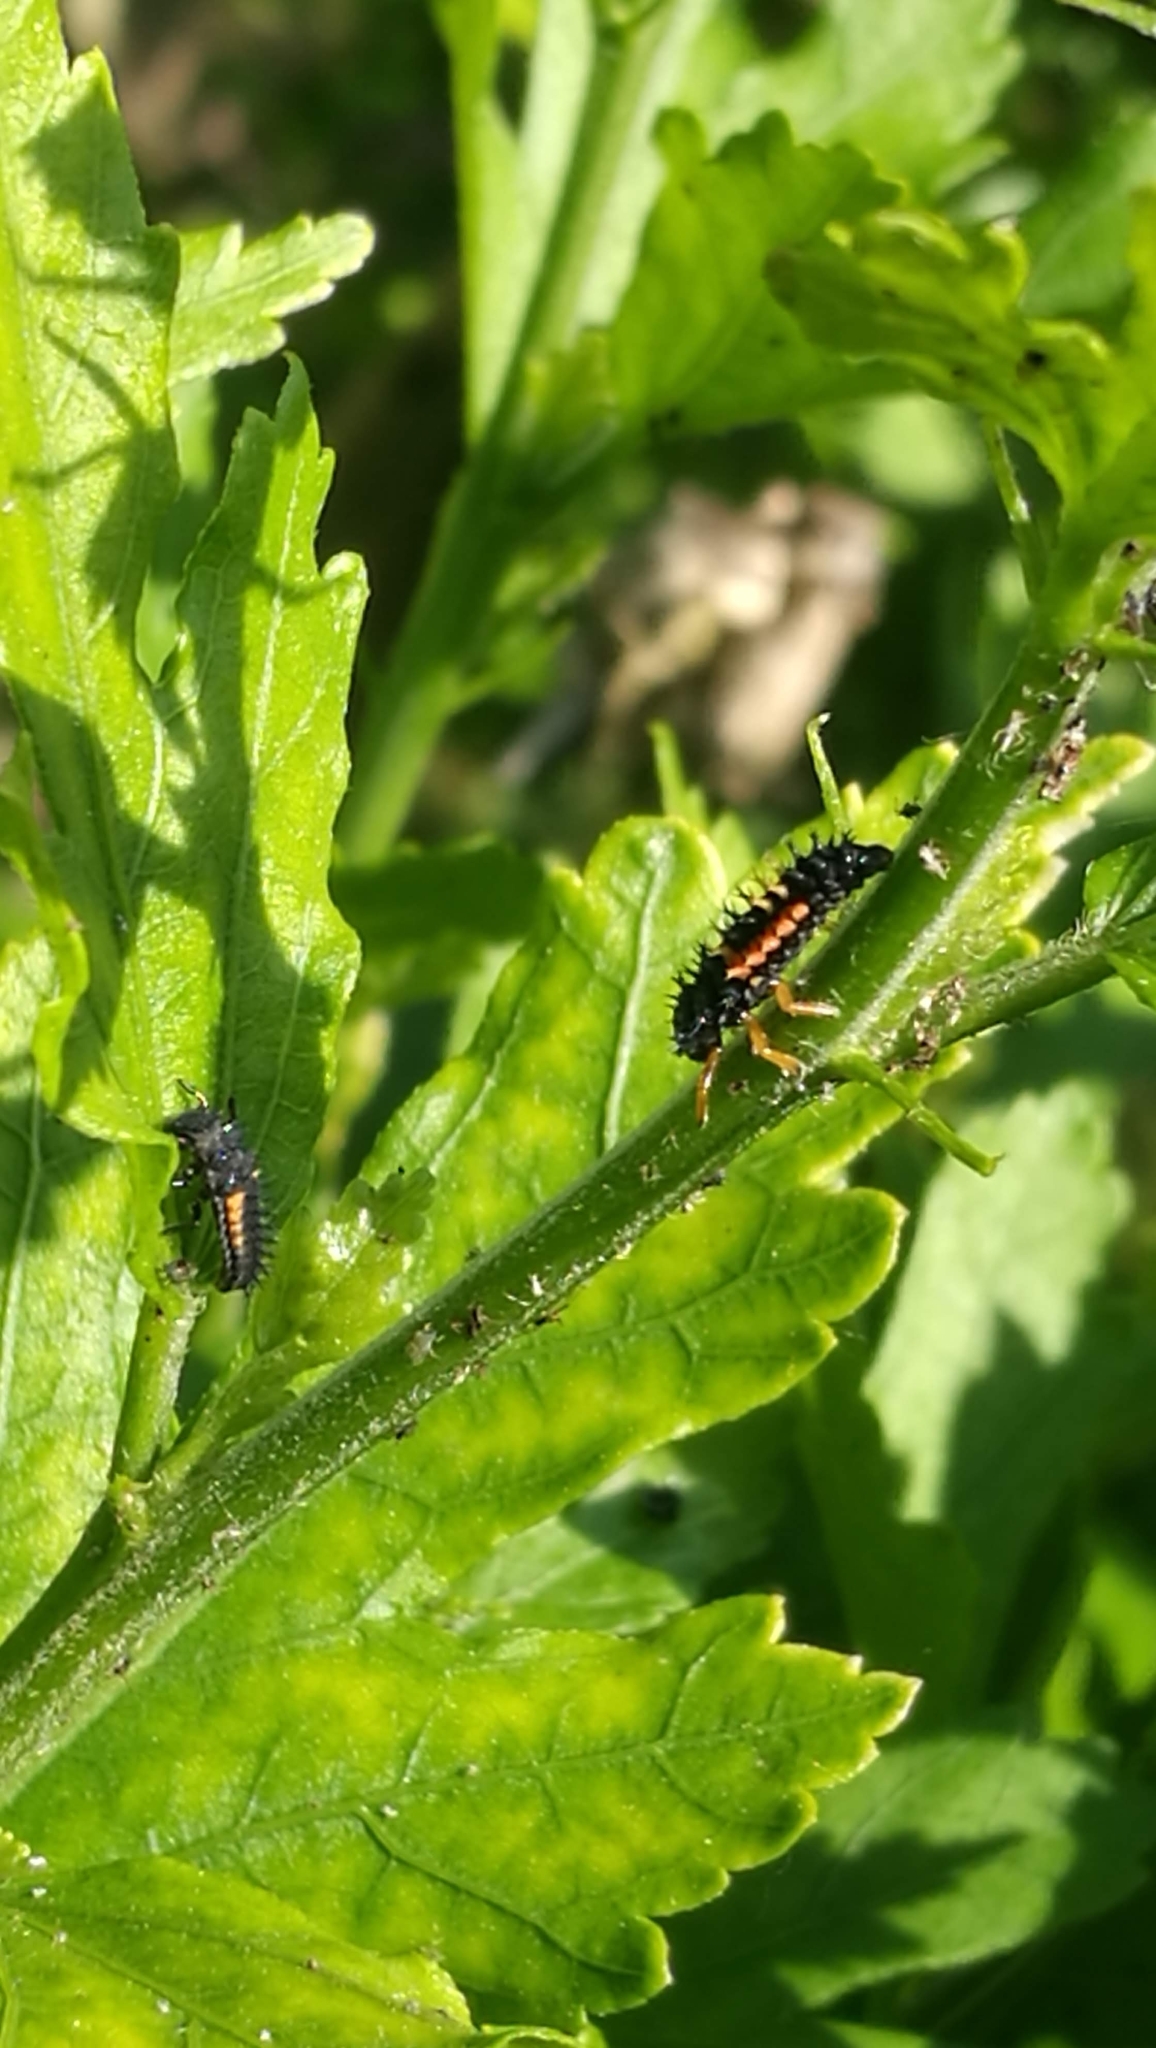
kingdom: Animalia
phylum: Arthropoda
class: Insecta
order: Coleoptera
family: Coccinellidae
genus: Harmonia
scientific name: Harmonia axyridis
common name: Harlequin ladybird
